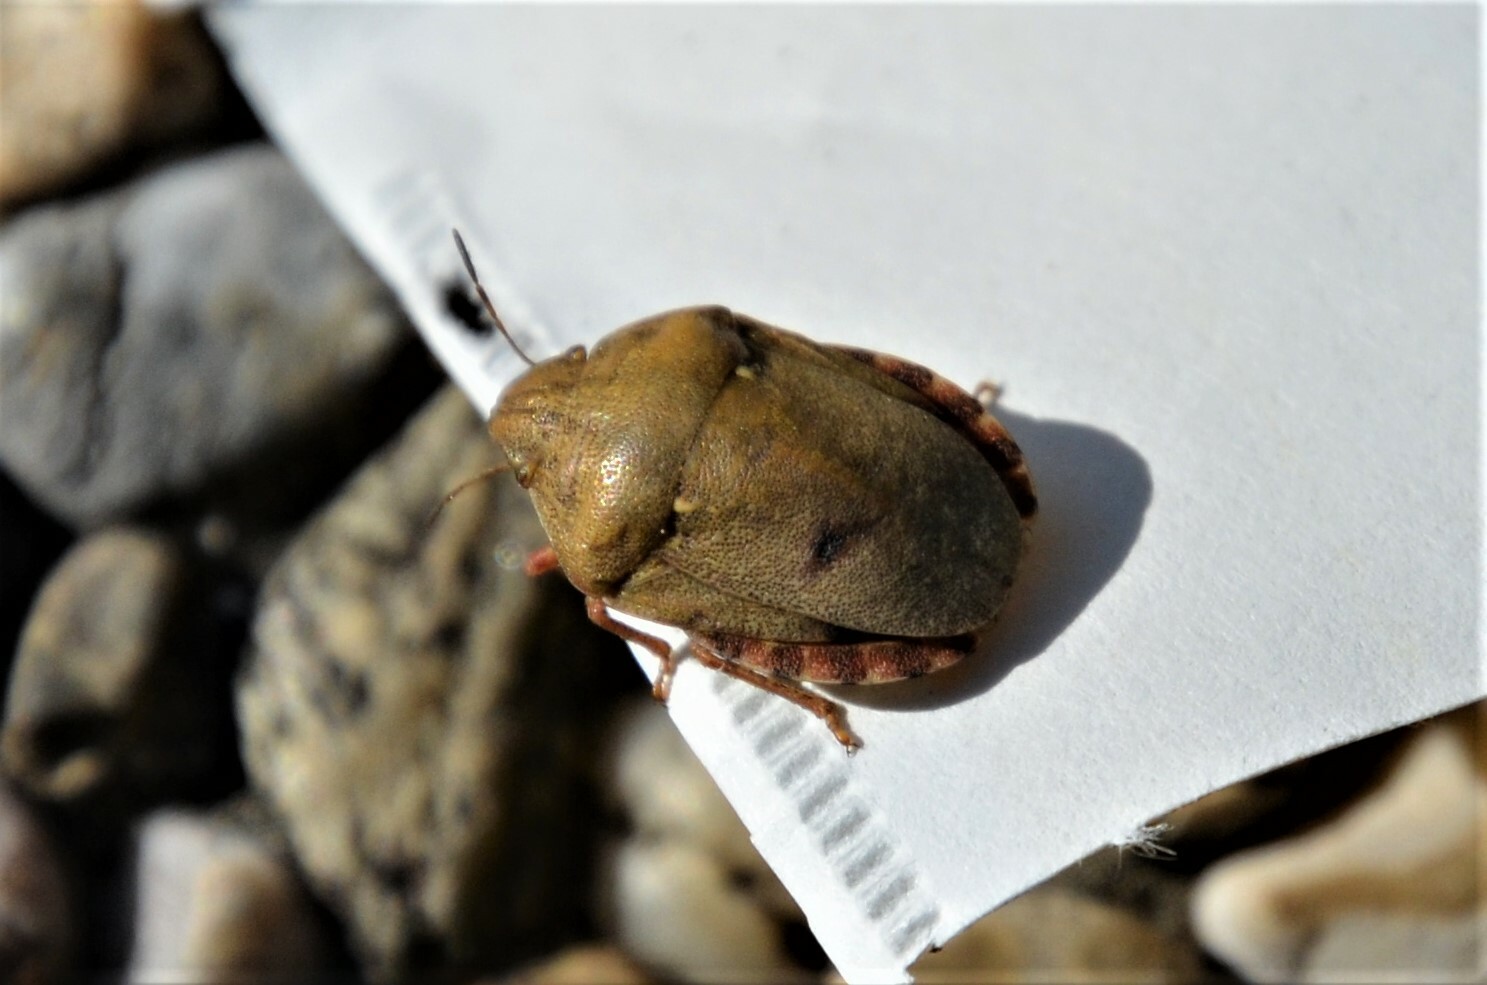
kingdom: Animalia
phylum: Arthropoda
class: Insecta
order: Hemiptera
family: Scutelleridae
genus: Eurygaster
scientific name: Eurygaster maura
